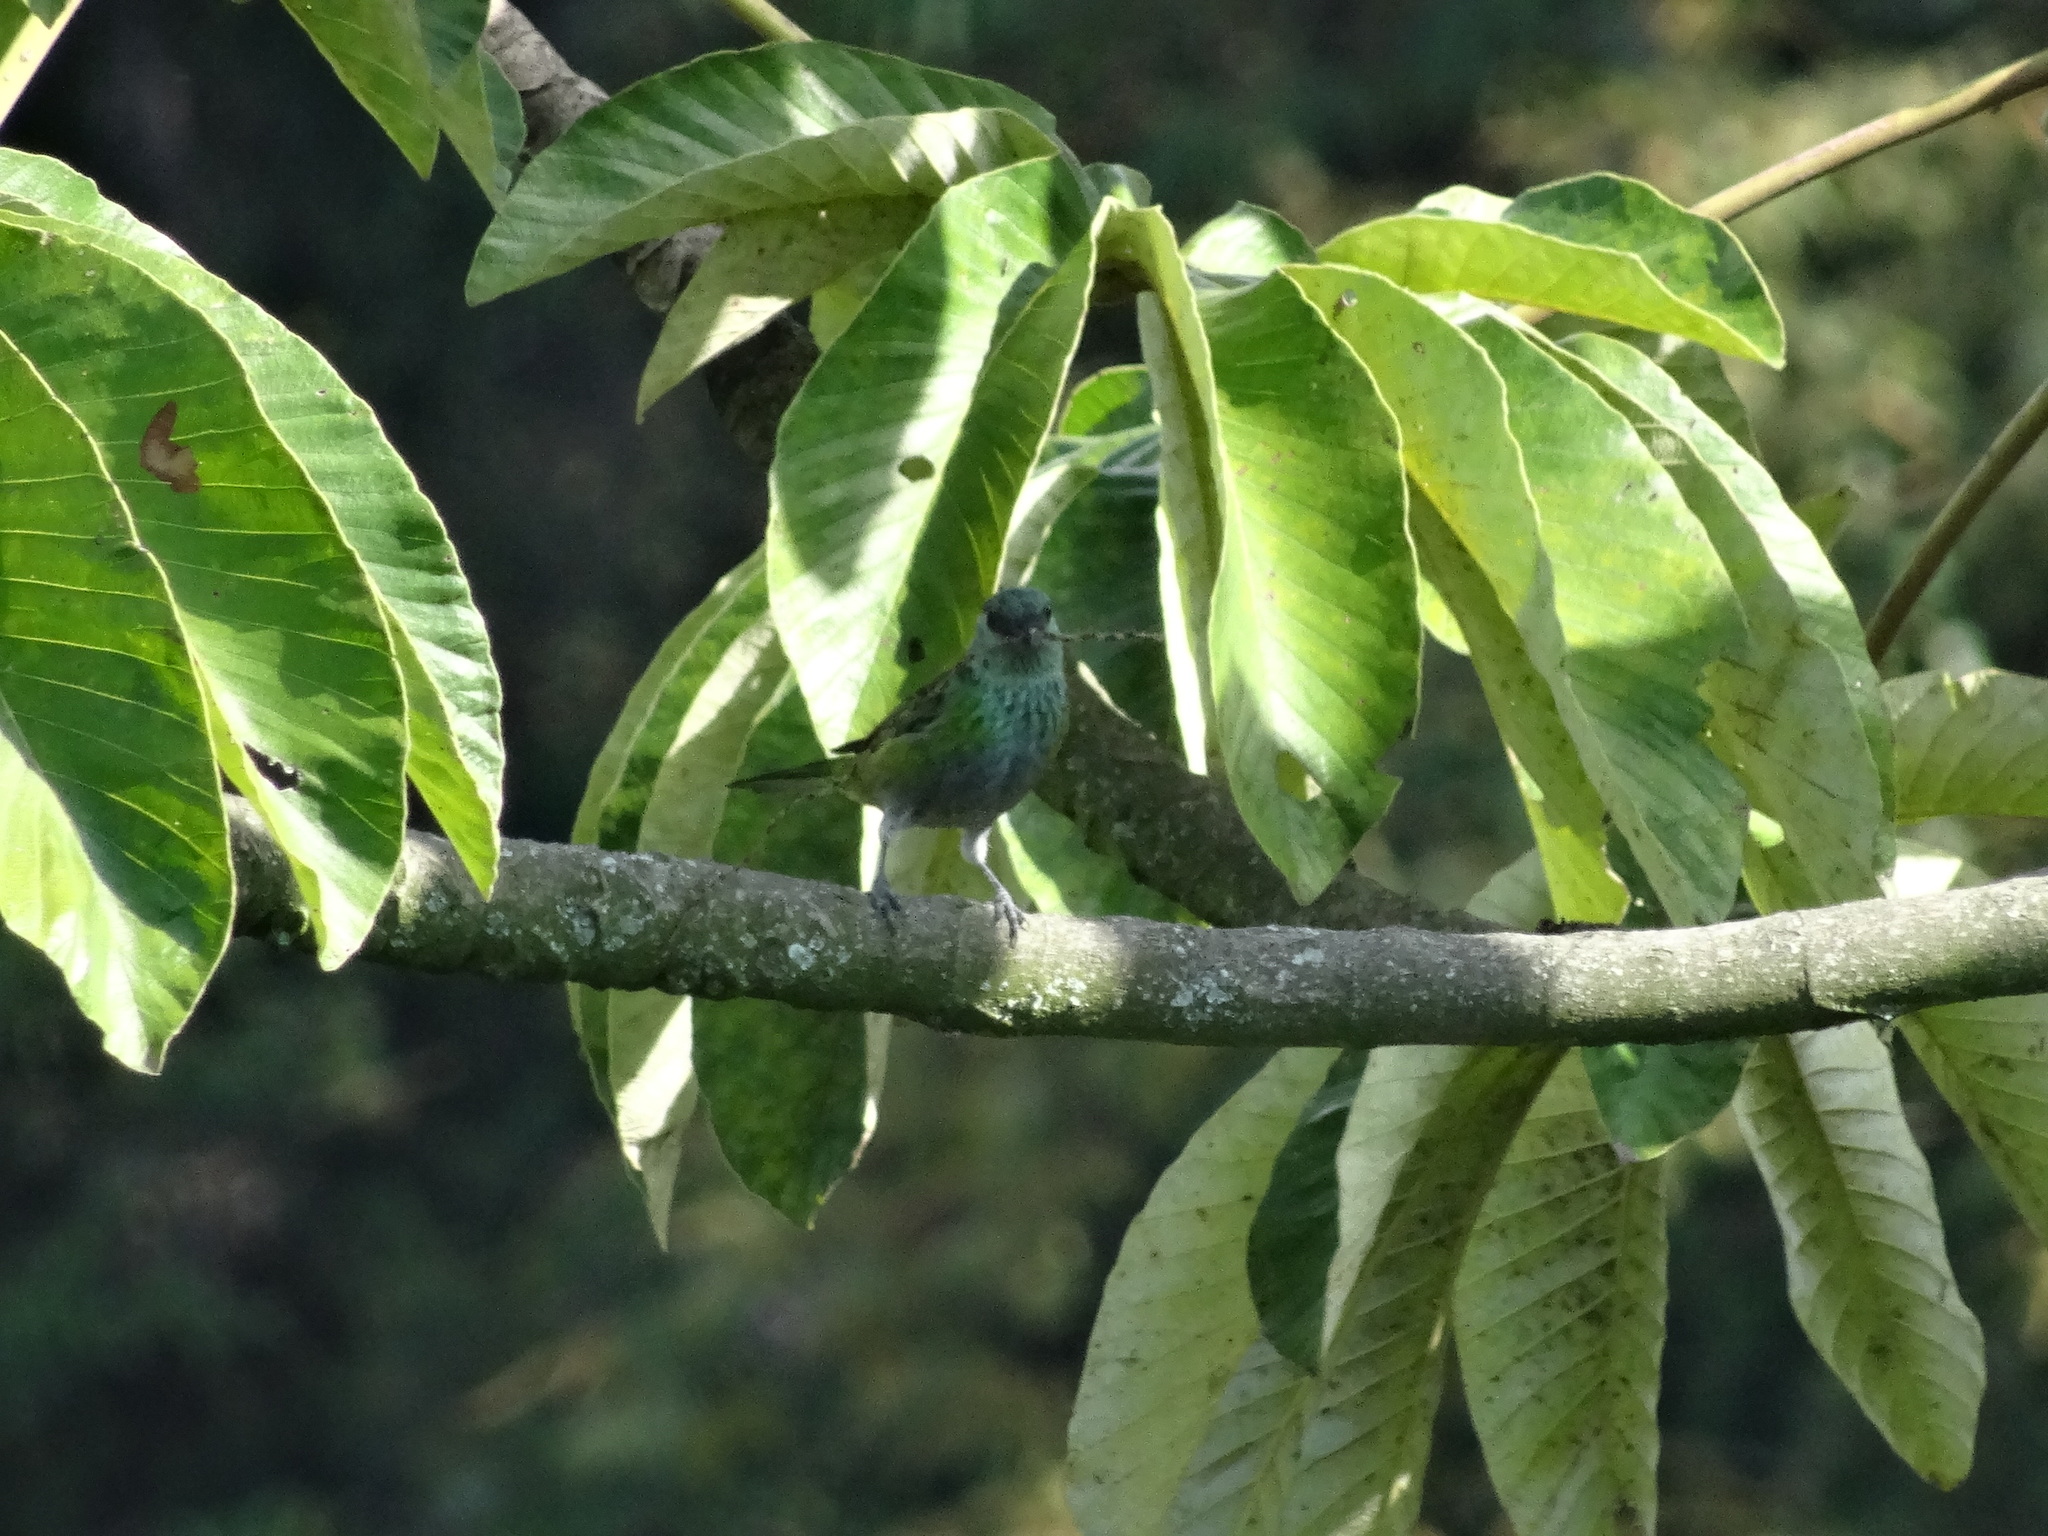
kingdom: Animalia
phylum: Chordata
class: Aves
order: Passeriformes
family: Thraupidae
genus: Stilpnia
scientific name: Stilpnia heinei
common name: Black-capped tanager
